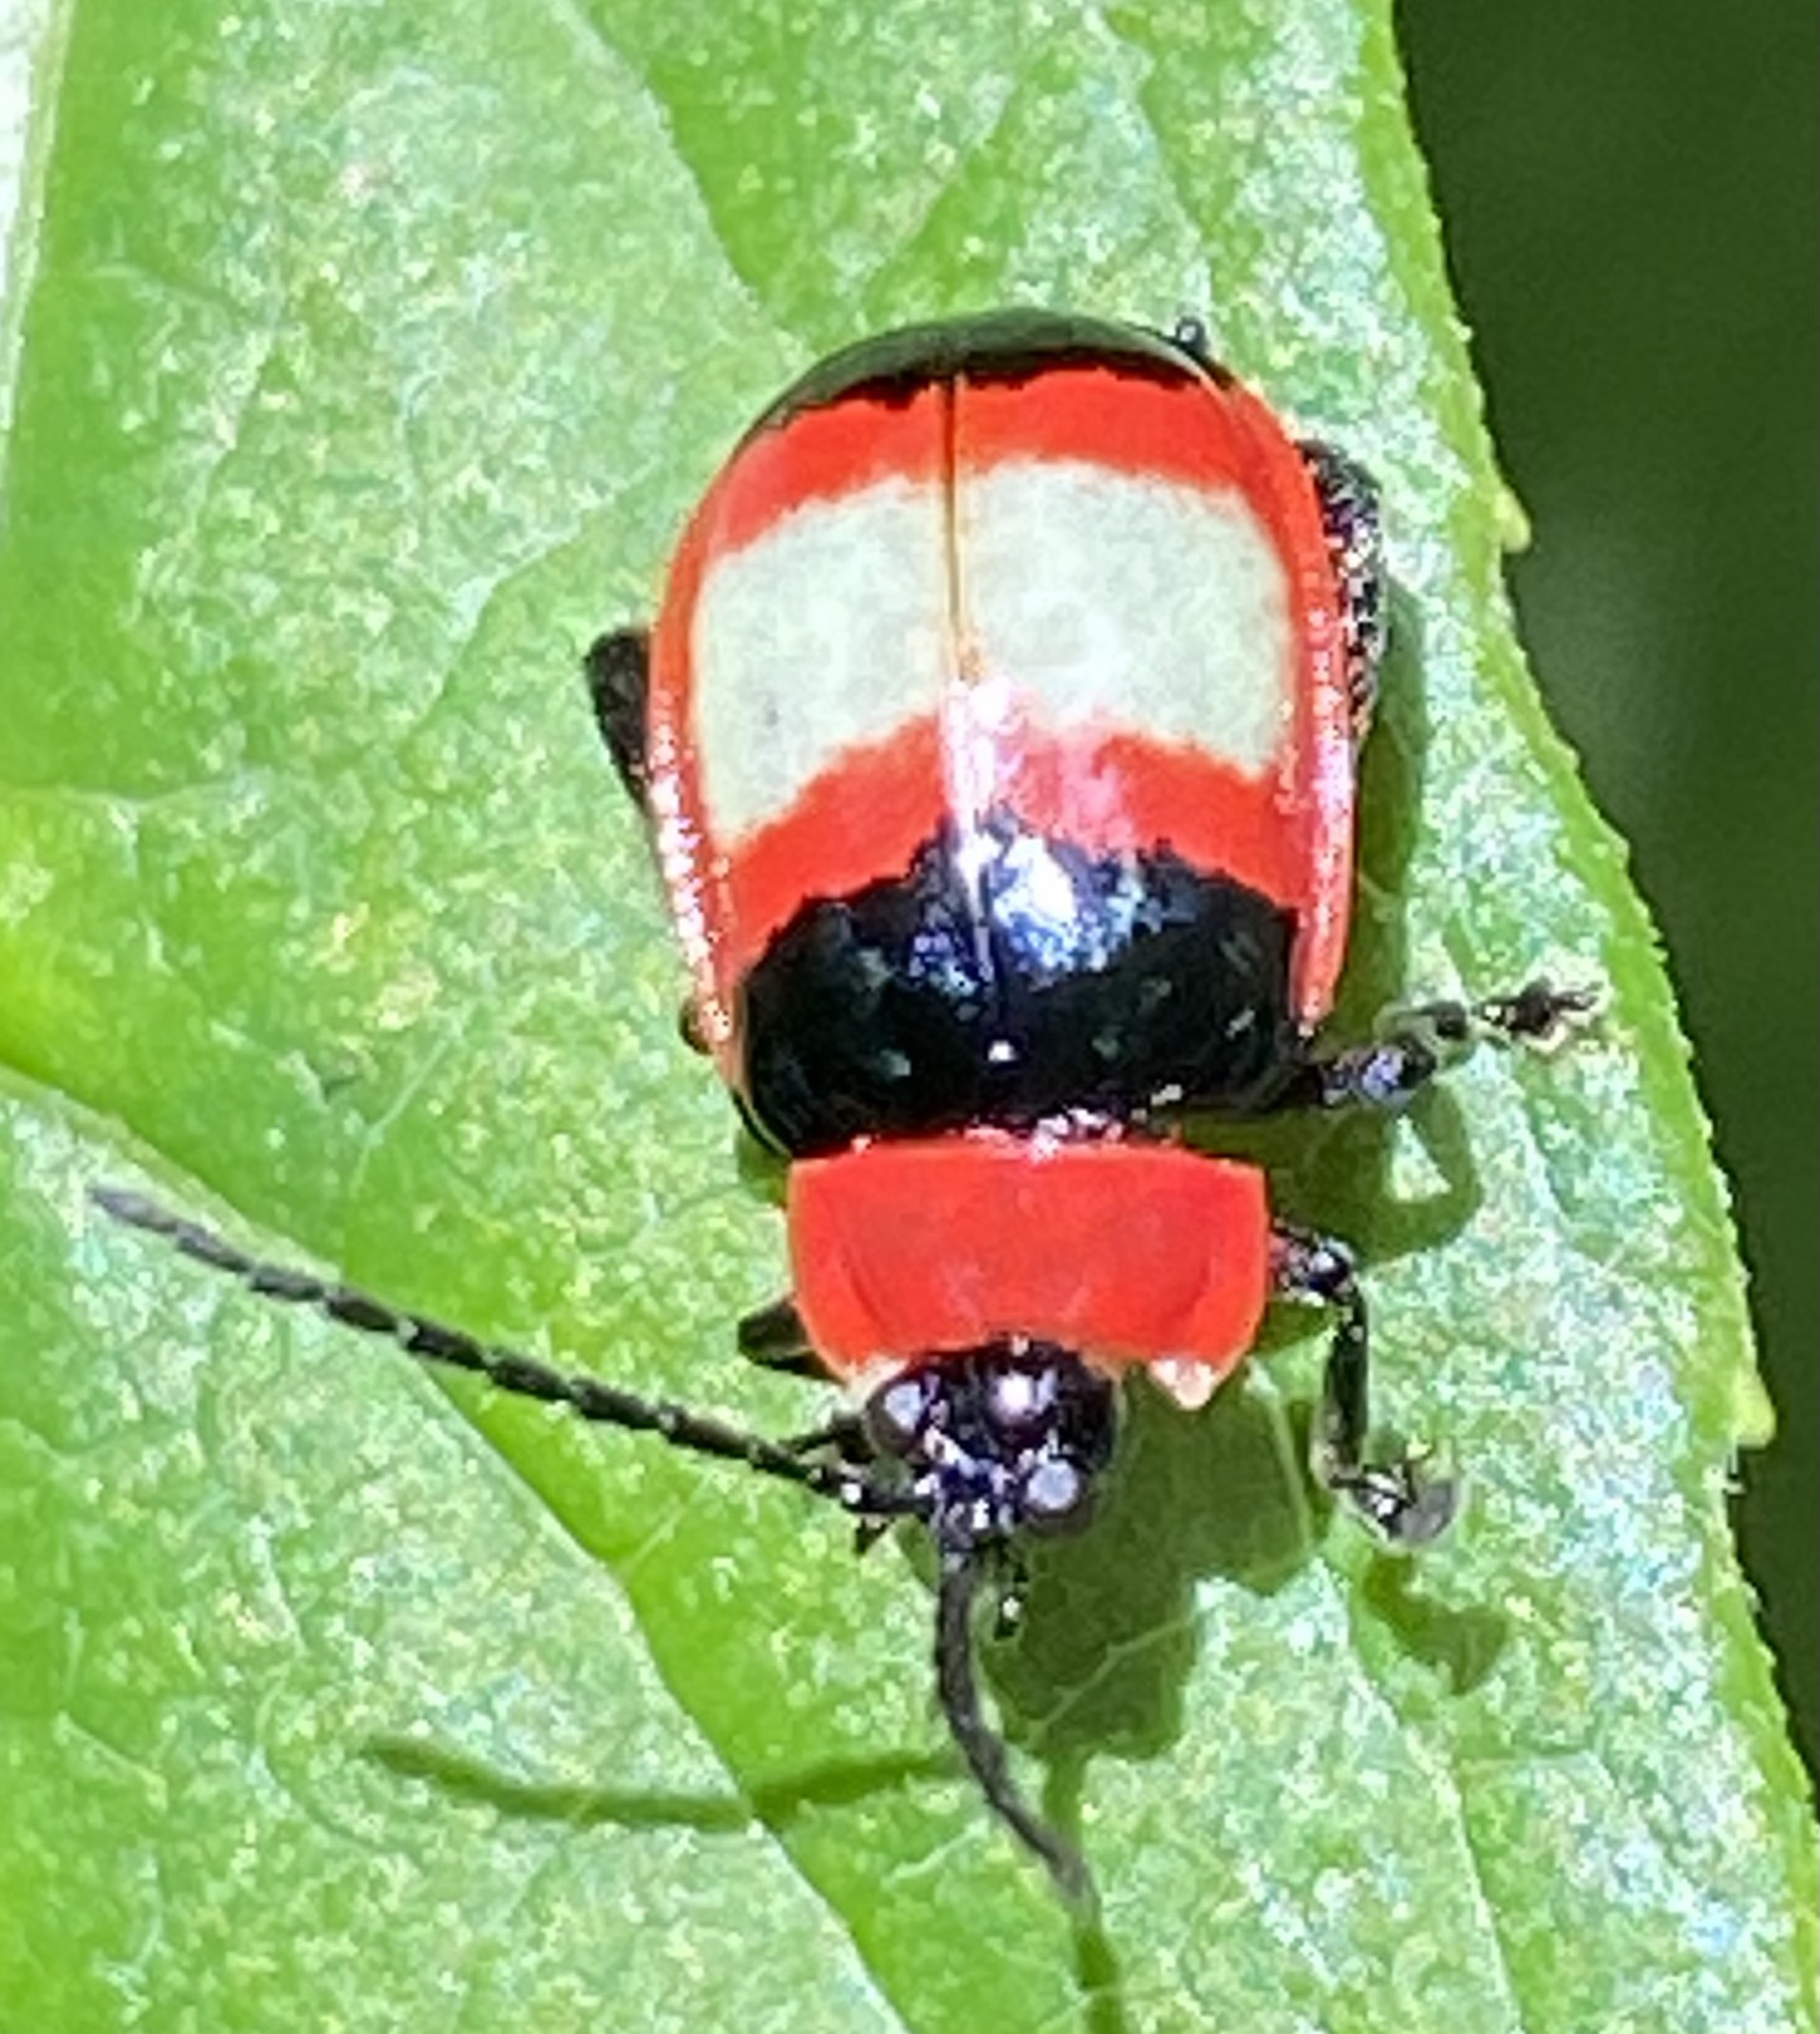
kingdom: Animalia
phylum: Arthropoda
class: Insecta
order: Coleoptera
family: Chrysomelidae
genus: Alagoasa
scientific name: Alagoasa
